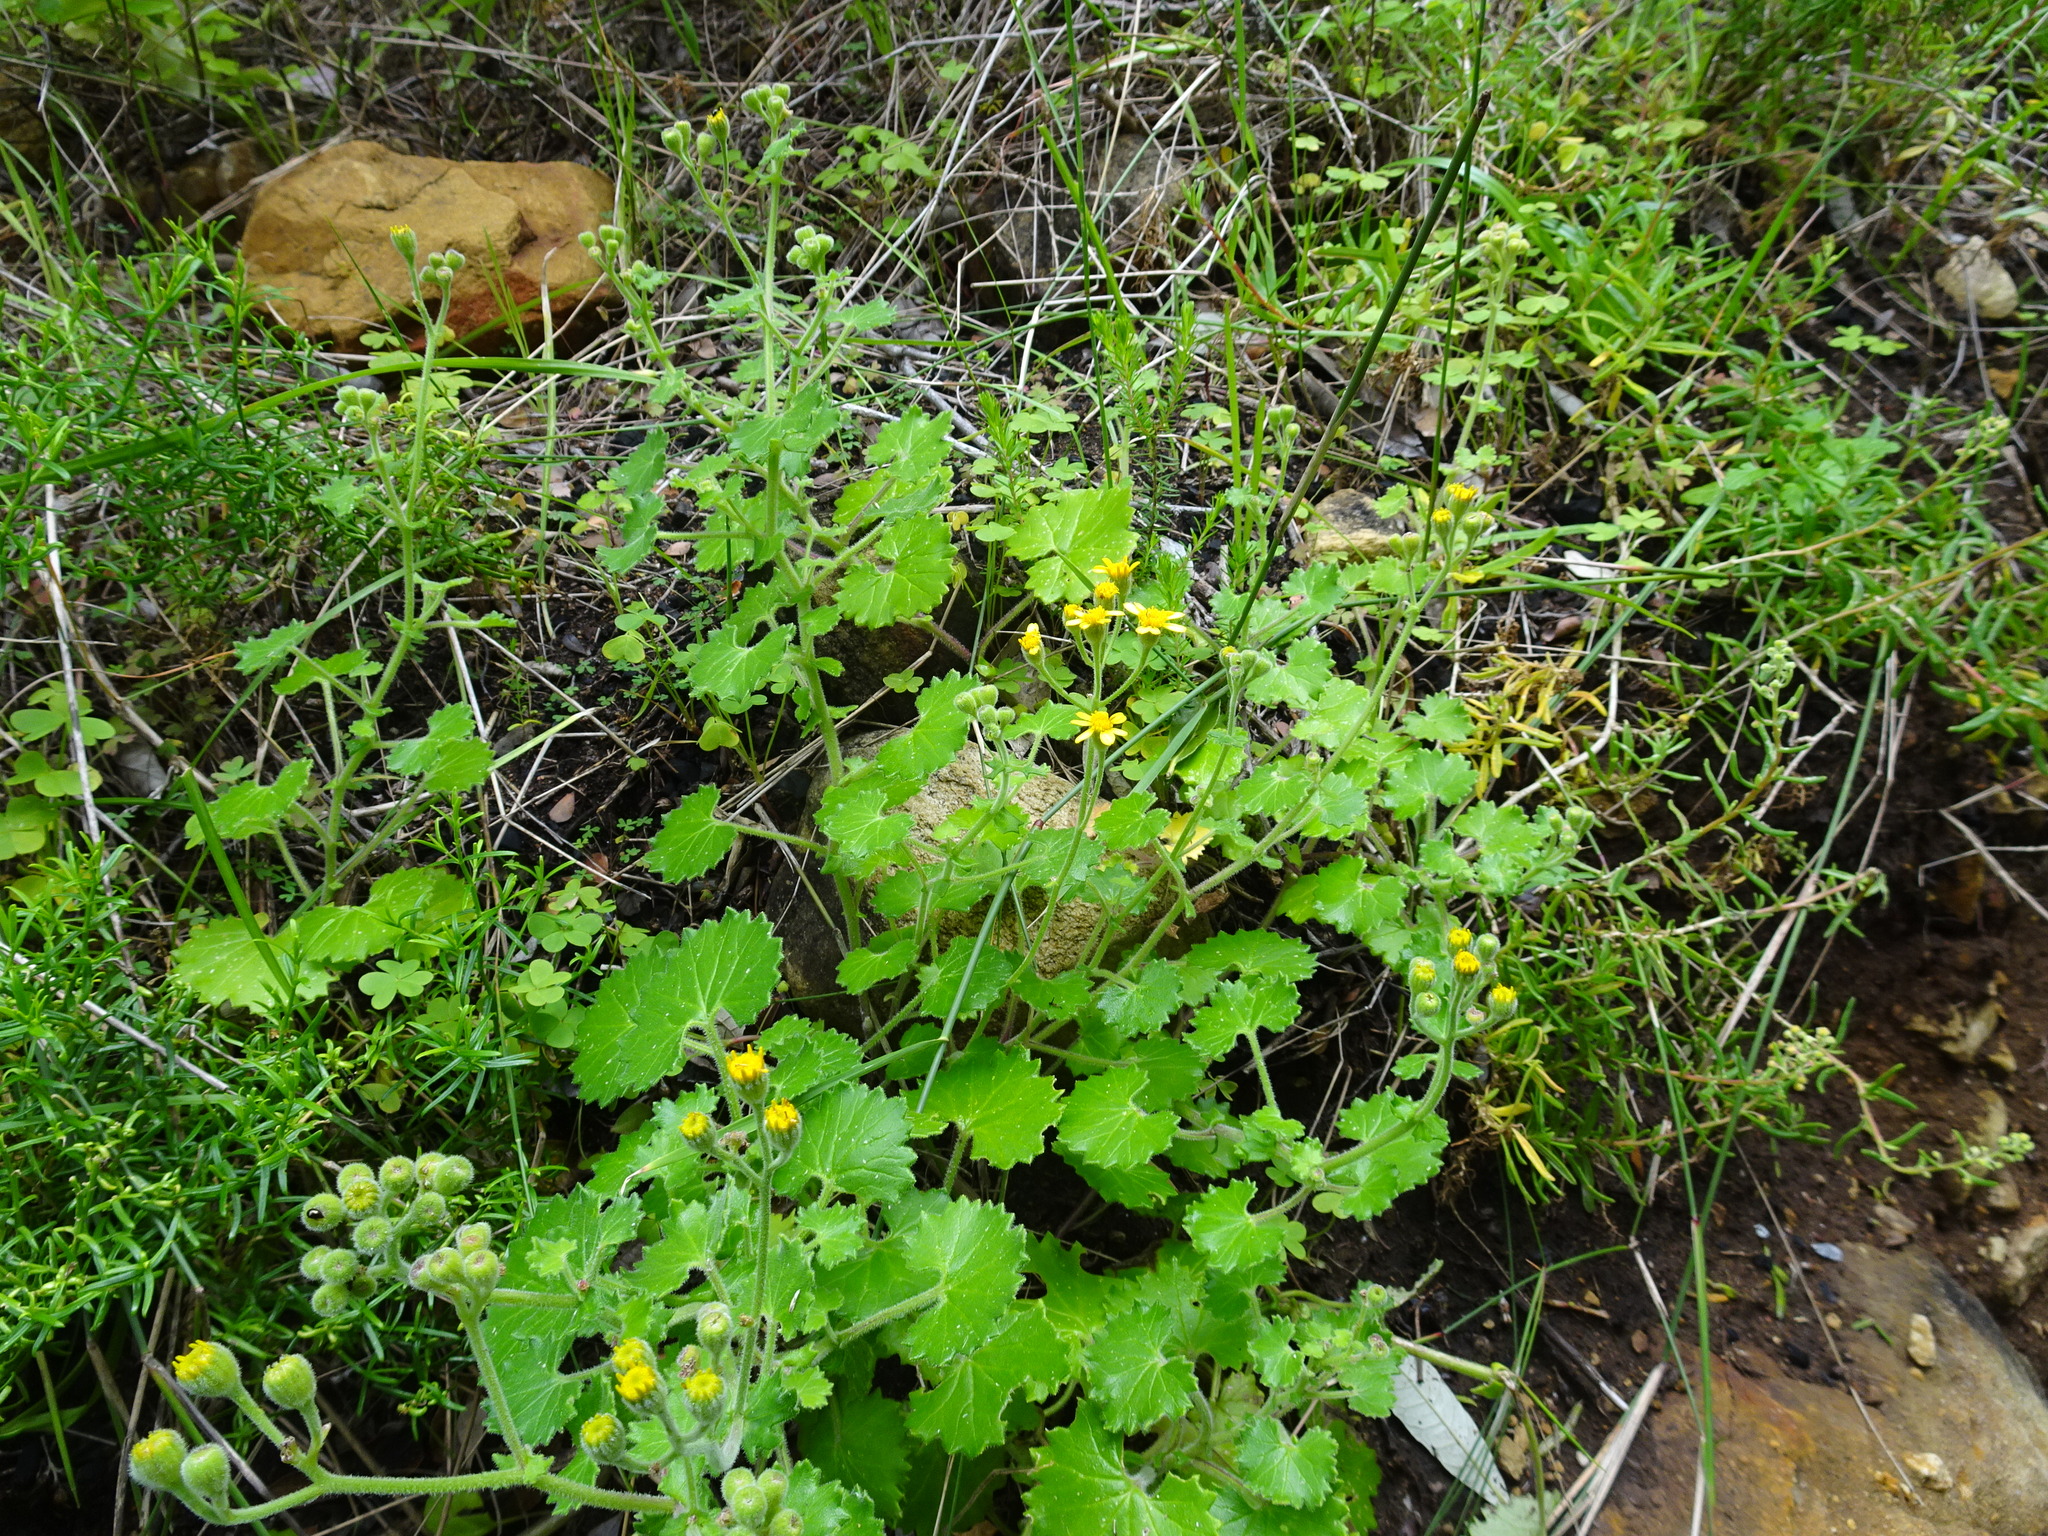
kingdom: Plantae
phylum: Tracheophyta
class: Magnoliopsida
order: Asterales
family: Asteraceae
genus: Cineraria
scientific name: Cineraria geifolia
